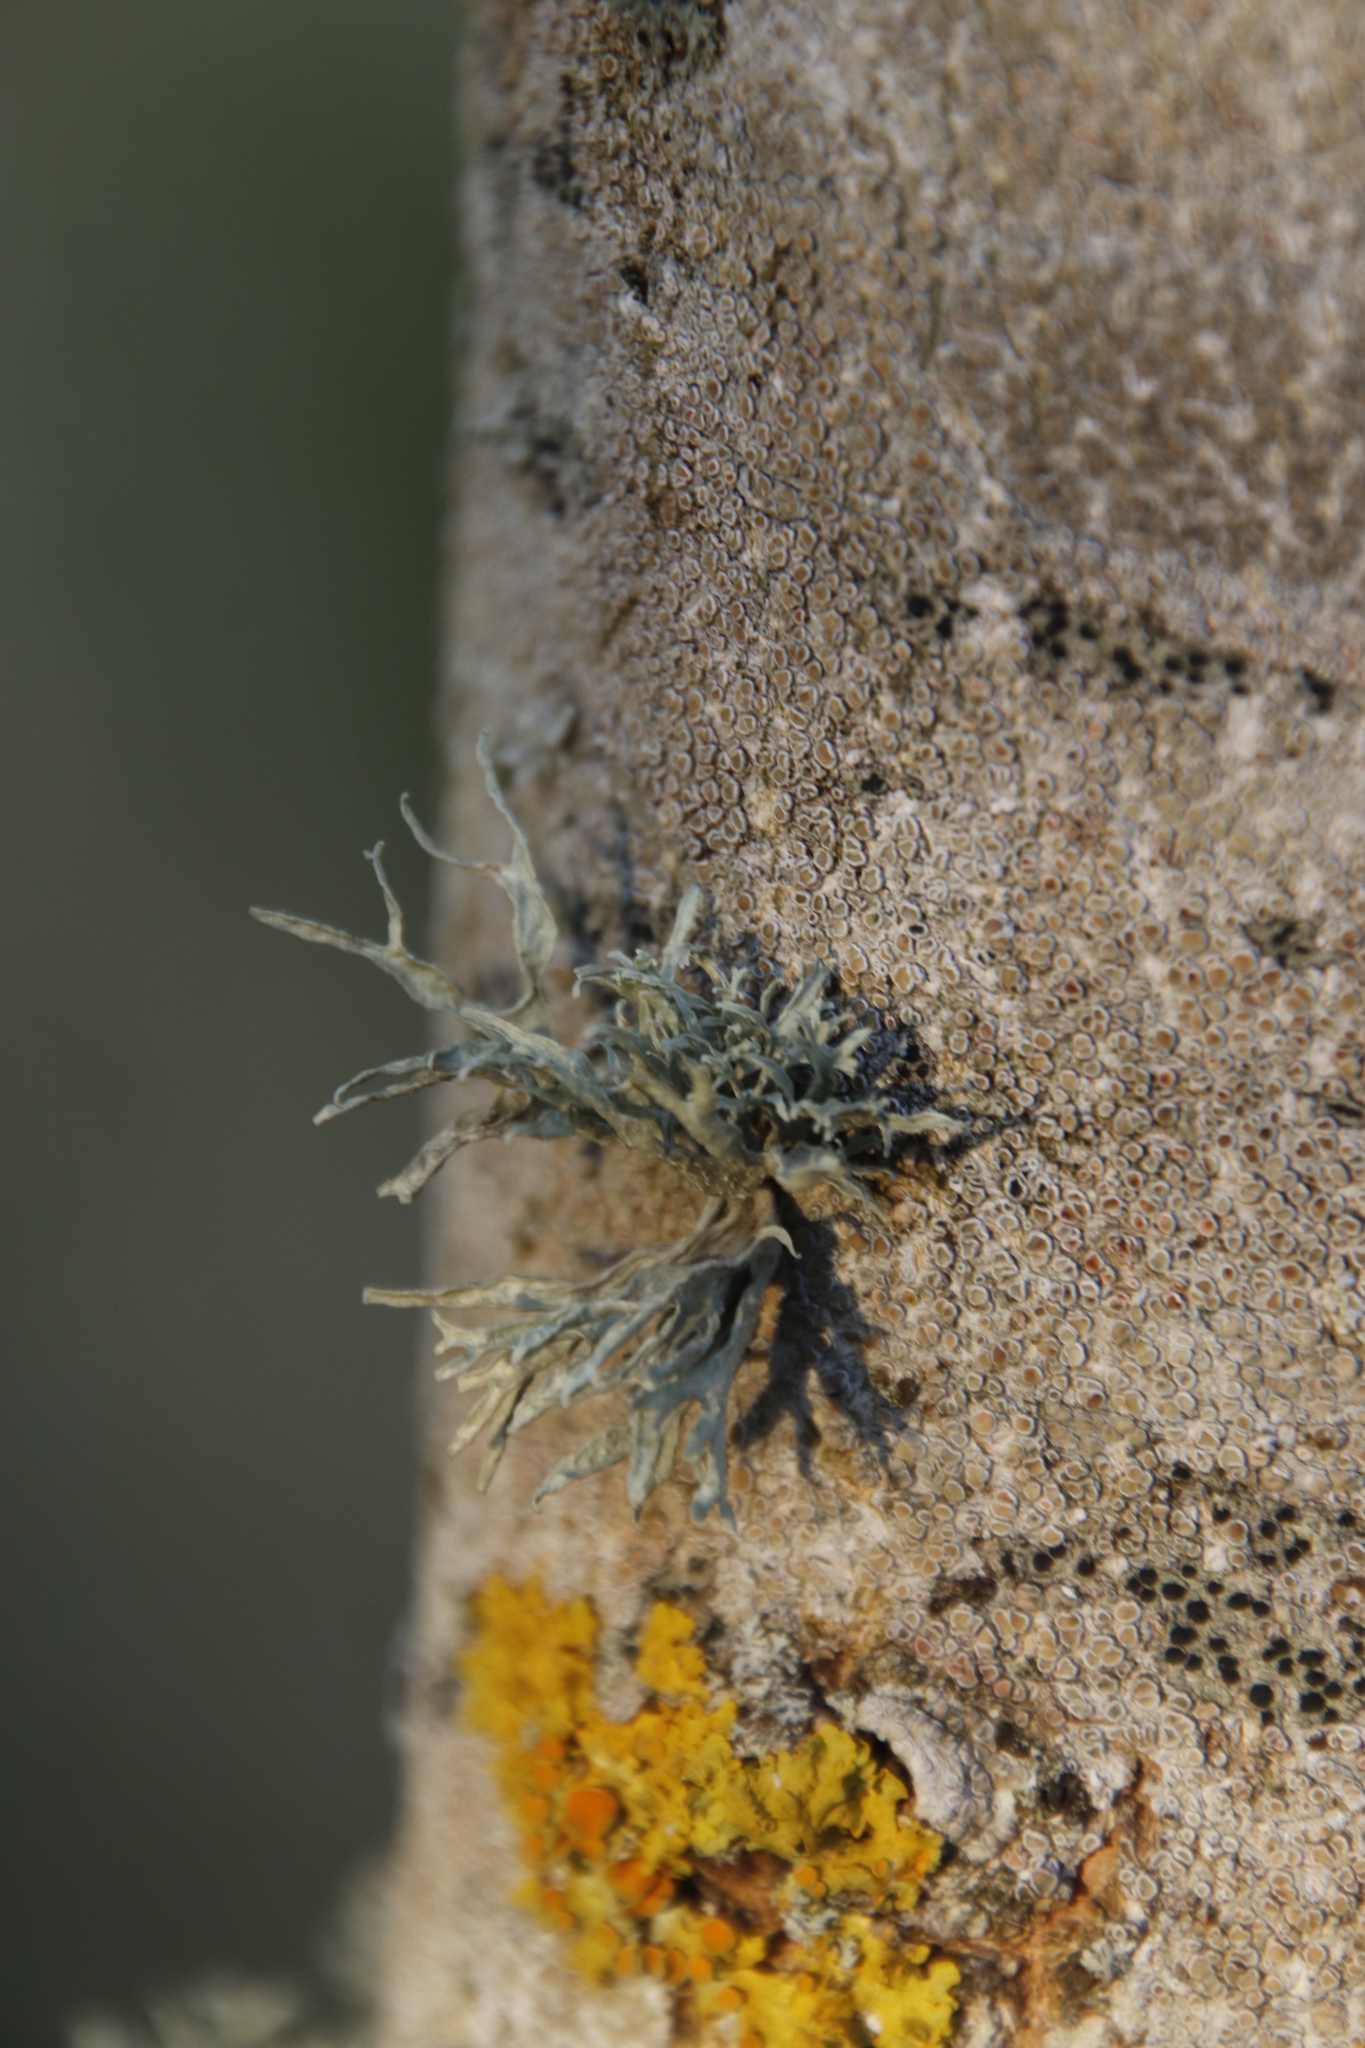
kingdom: Fungi
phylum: Ascomycota
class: Lecanoromycetes
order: Lecanorales
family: Ramalinaceae
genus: Ramalina
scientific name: Ramalina fraxinea
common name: Cartilage lichen
